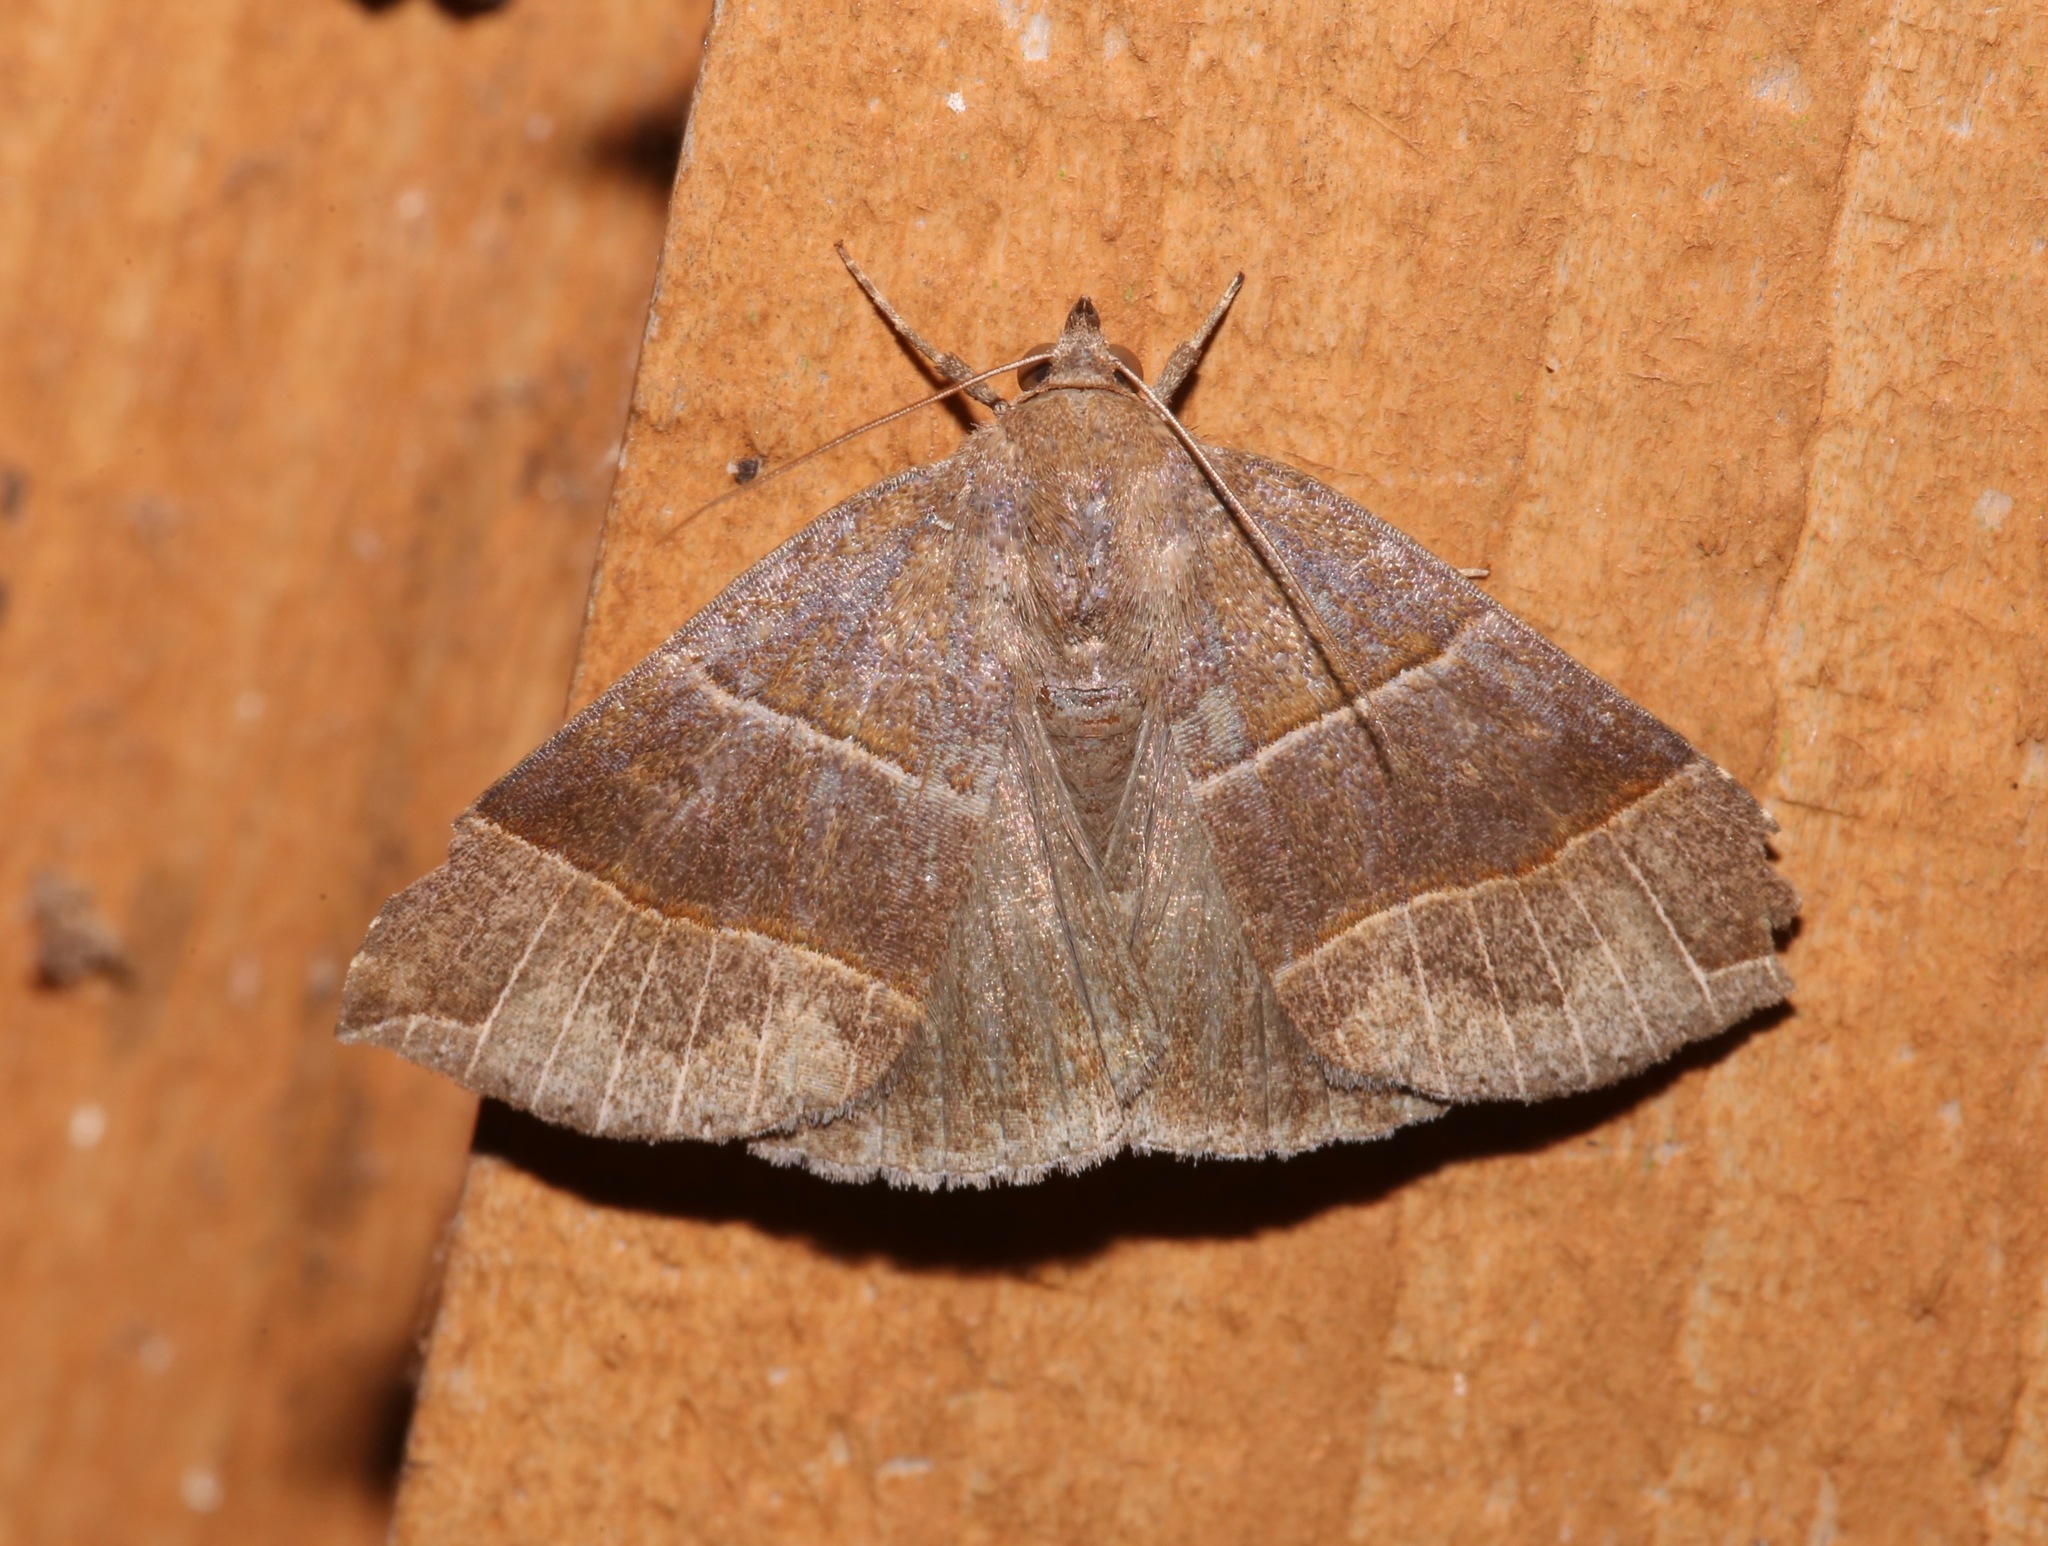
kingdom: Animalia
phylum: Arthropoda
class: Insecta
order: Lepidoptera
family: Erebidae
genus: Parallelia
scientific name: Parallelia bistriaris
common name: Maple looper moth
